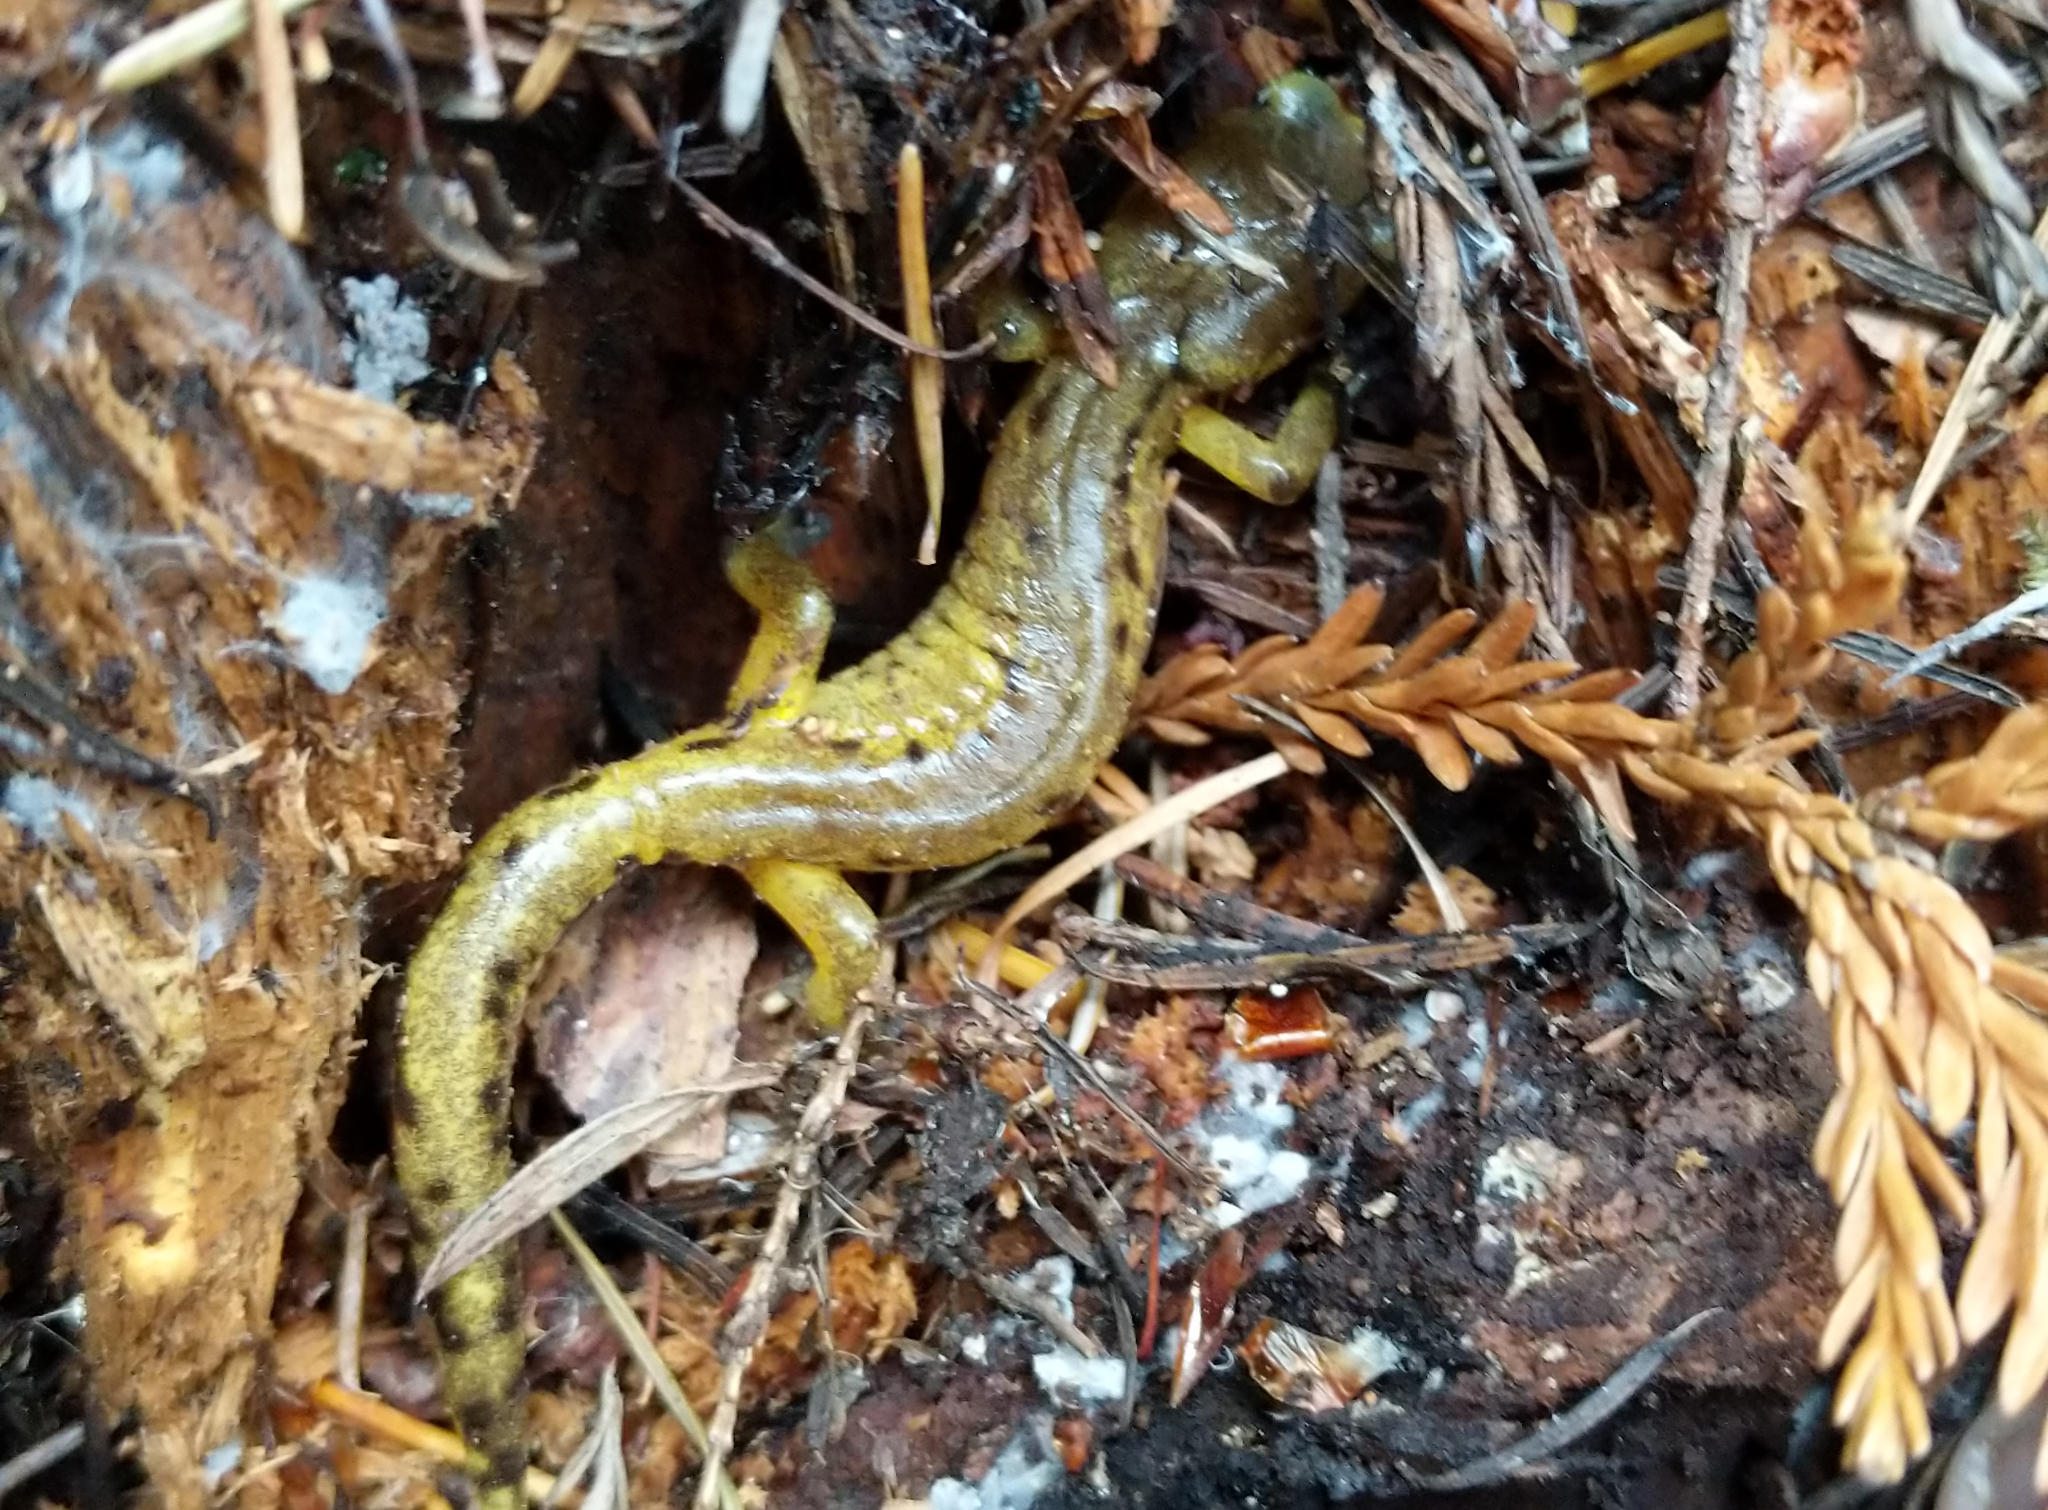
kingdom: Animalia
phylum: Chordata
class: Amphibia
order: Caudata
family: Plethodontidae
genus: Ensatina
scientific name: Ensatina eschscholtzii
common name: Ensatina
